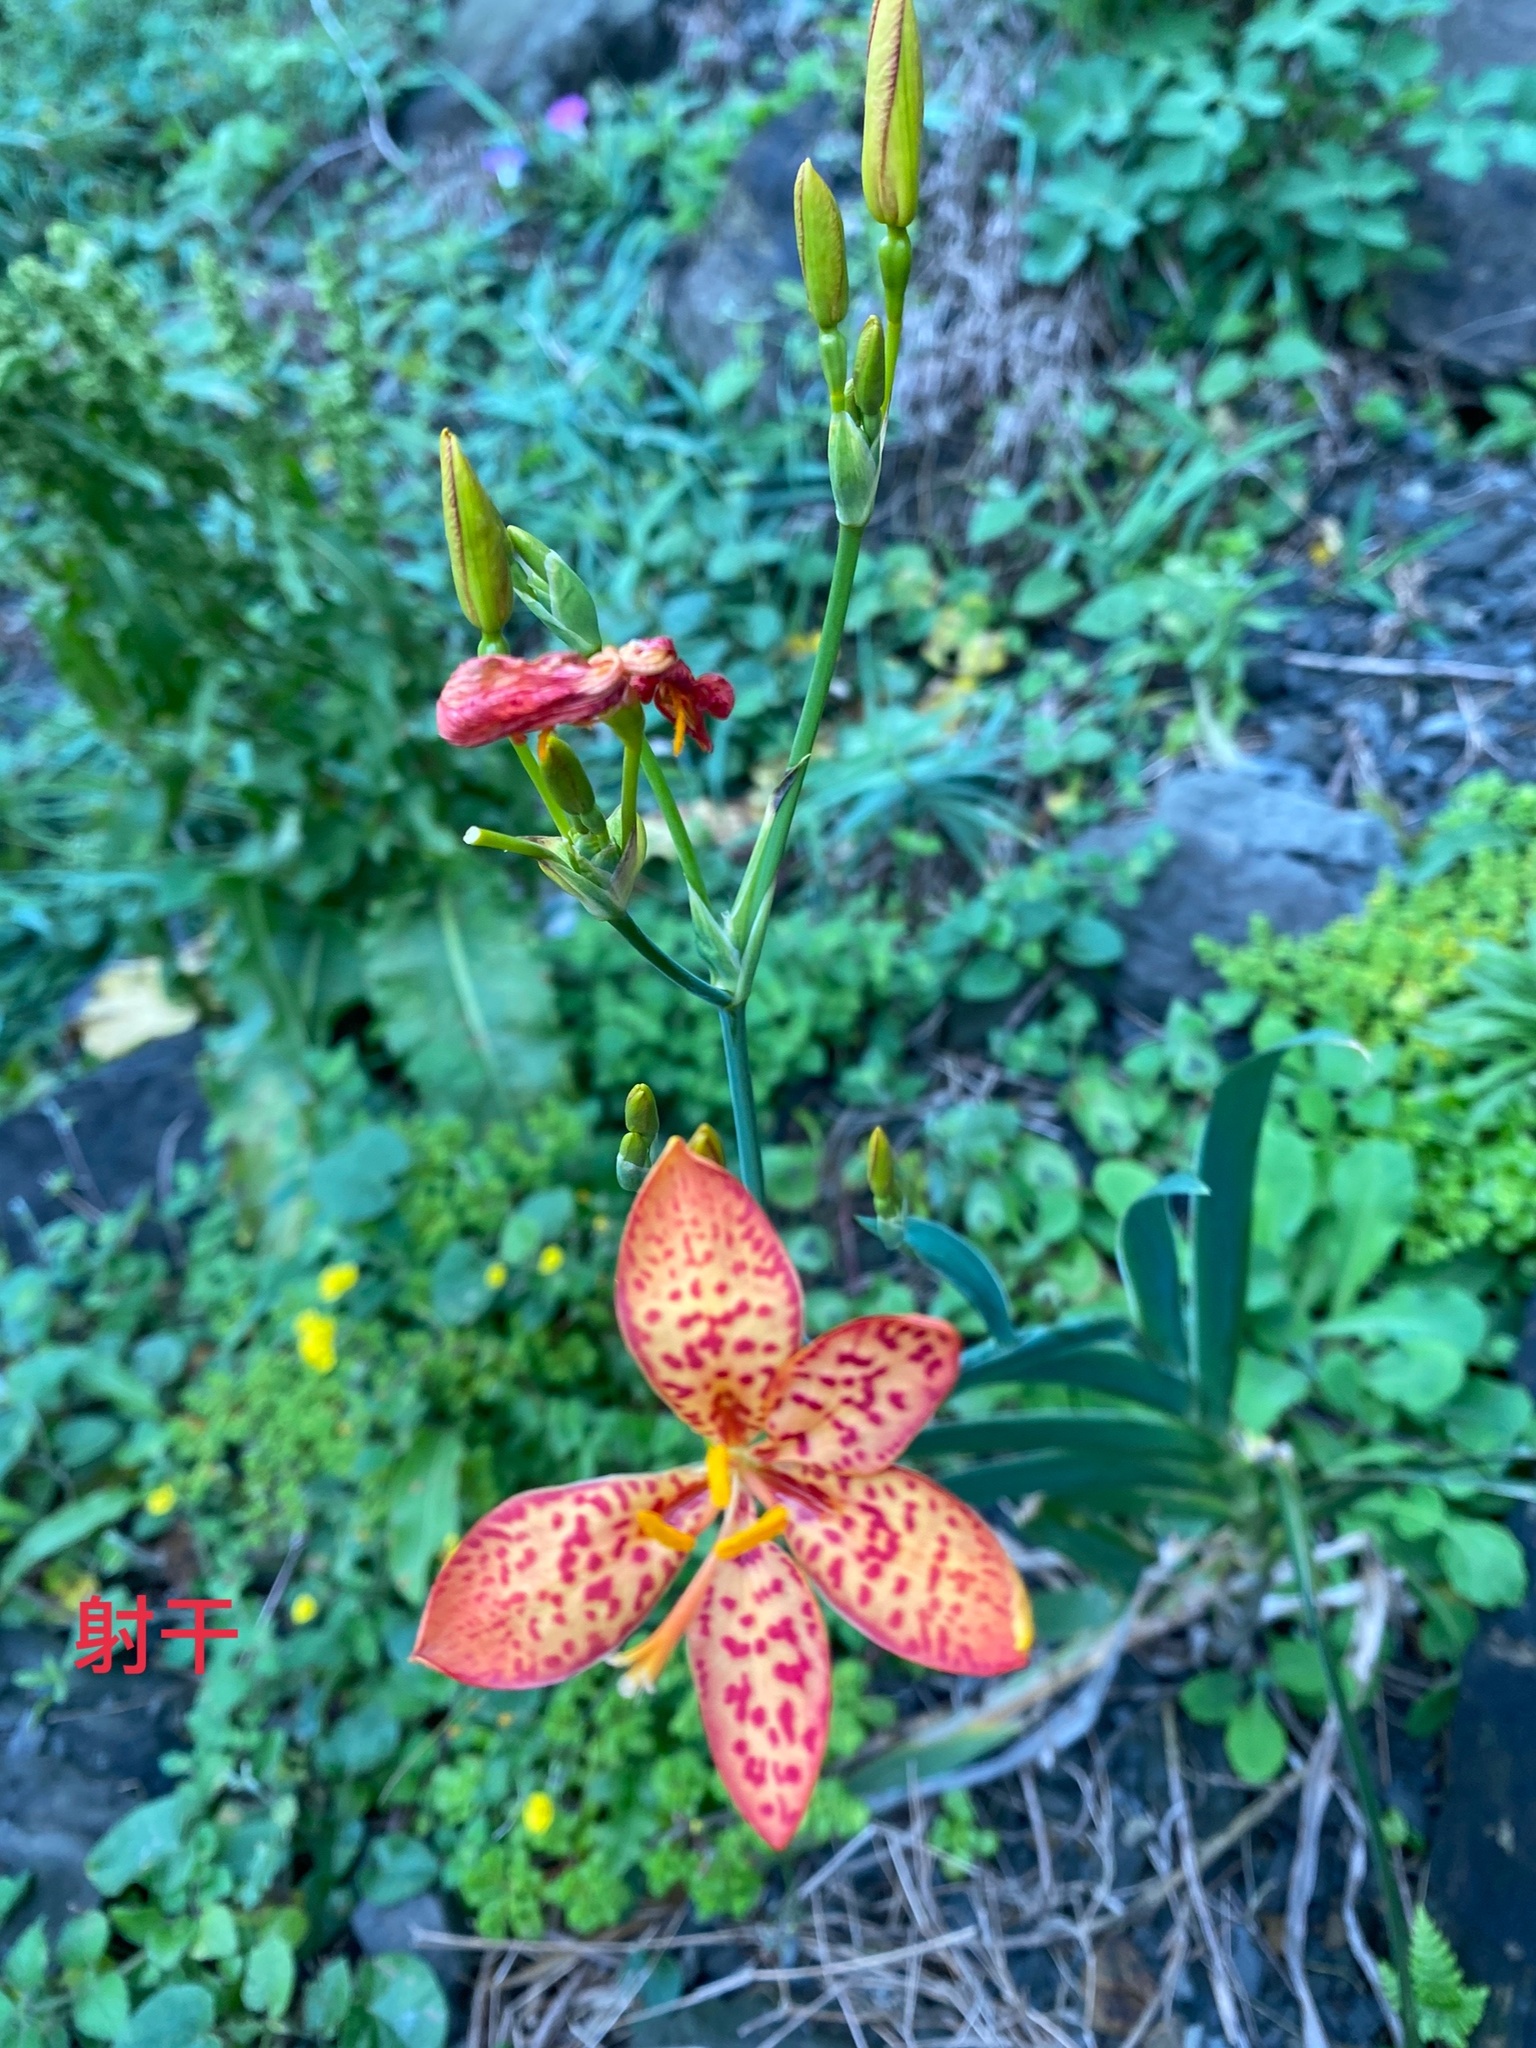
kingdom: Plantae
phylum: Tracheophyta
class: Liliopsida
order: Asparagales
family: Iridaceae
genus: Iris
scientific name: Iris domestica
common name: Belamcanda
